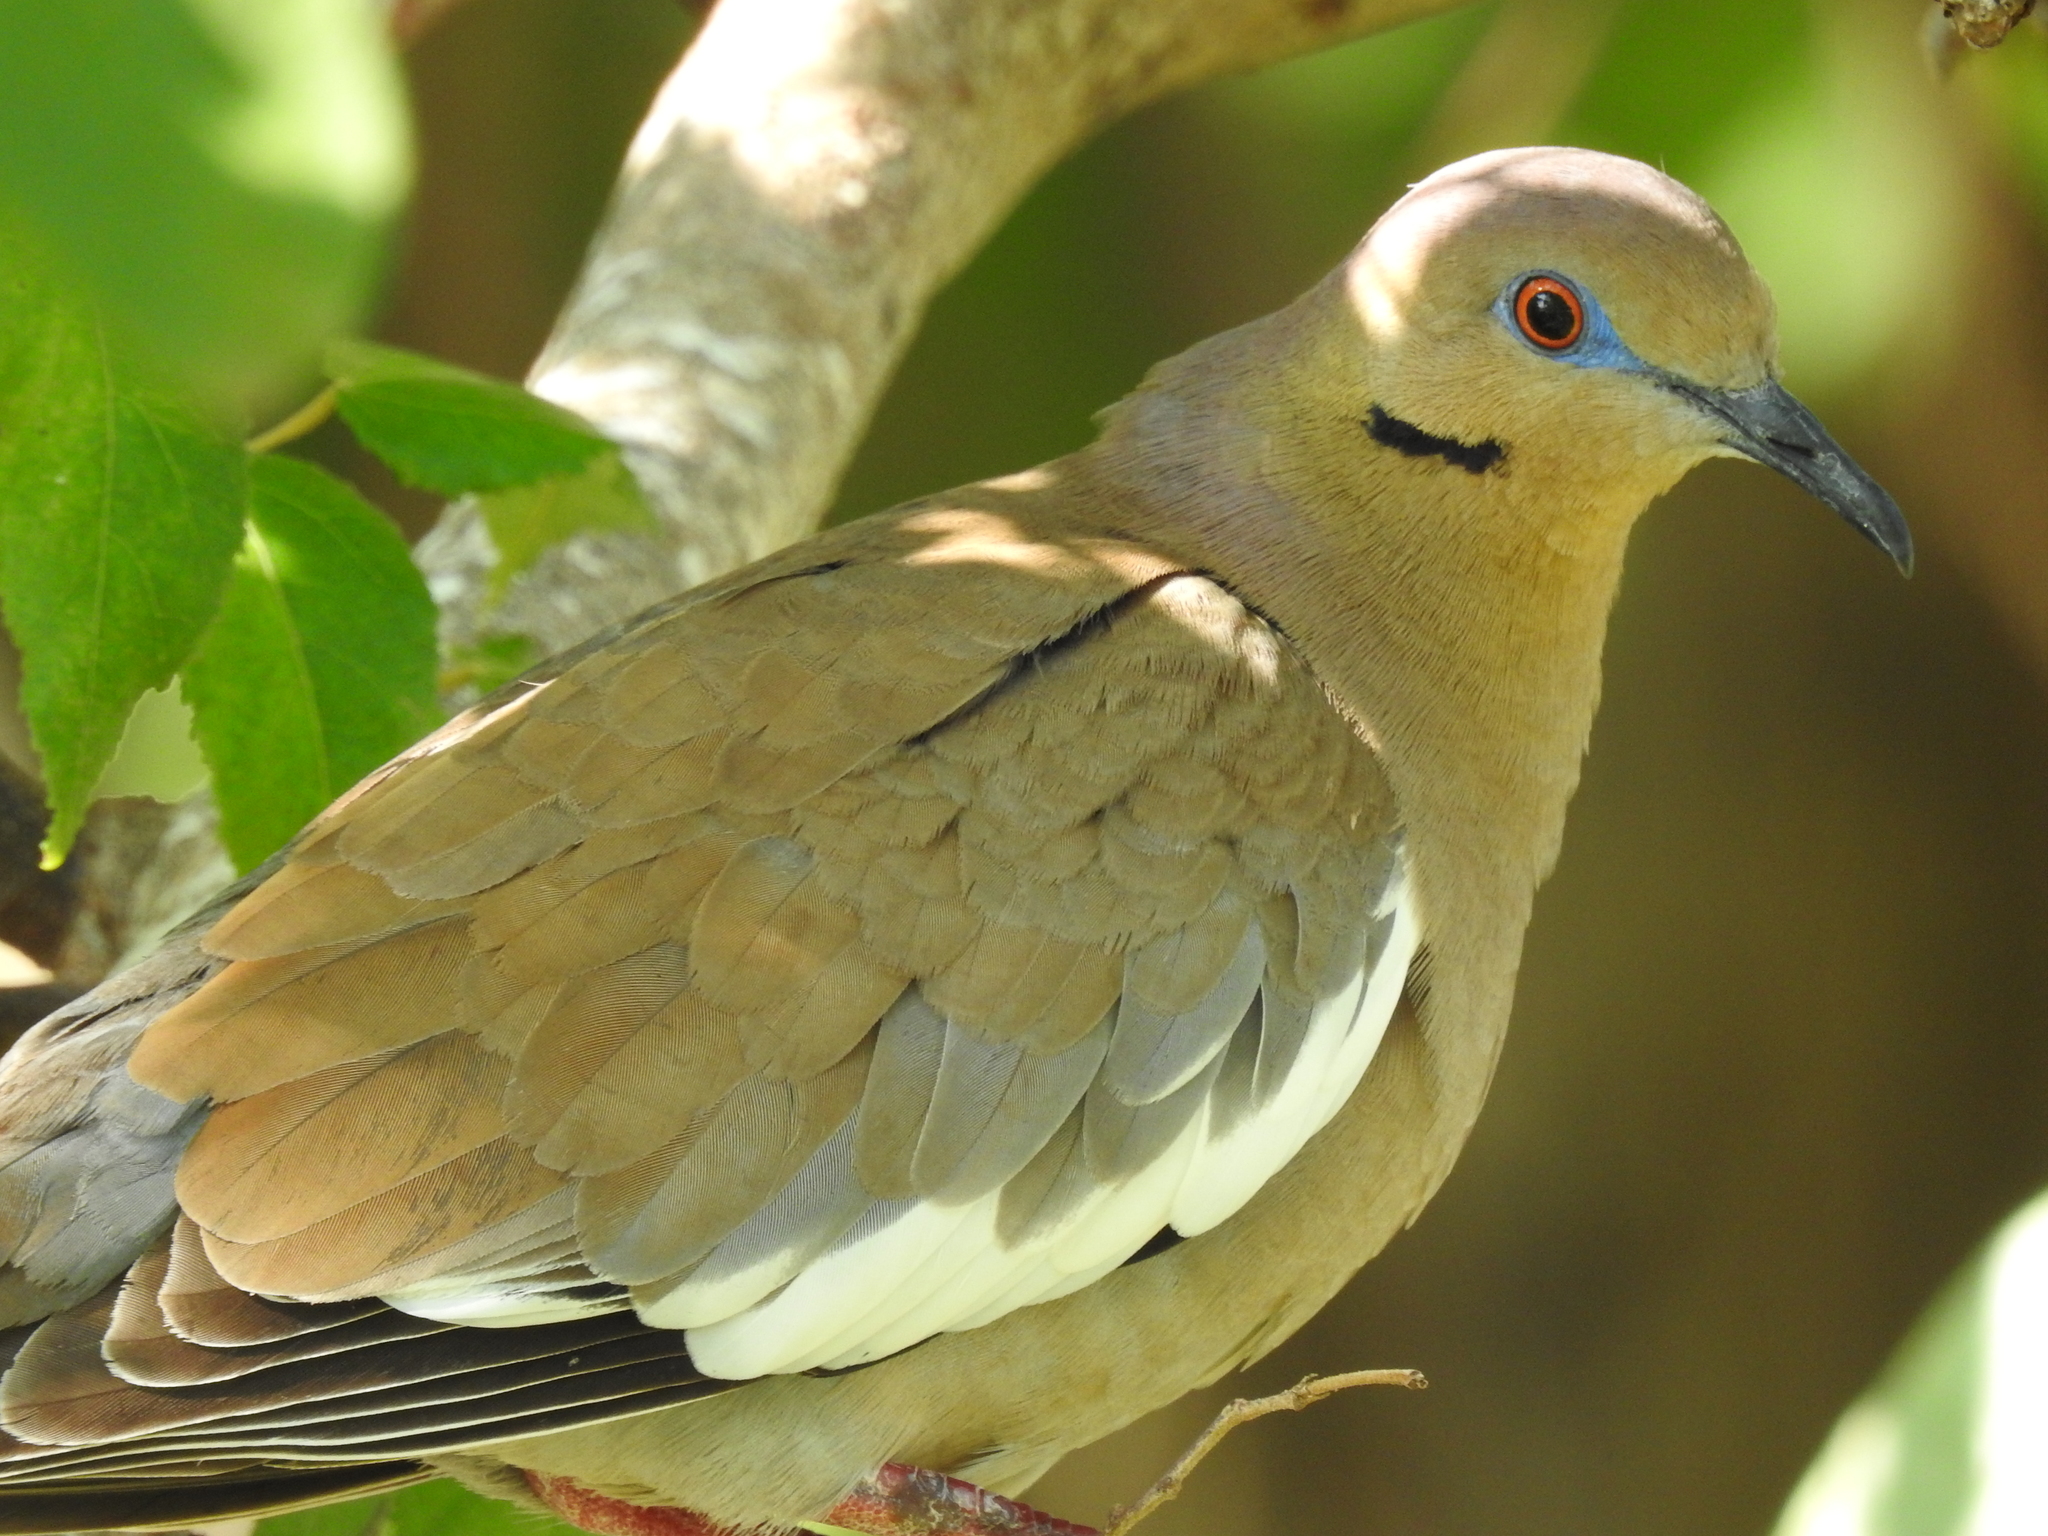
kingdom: Animalia
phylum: Chordata
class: Aves
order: Columbiformes
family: Columbidae
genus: Zenaida
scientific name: Zenaida asiatica
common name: White-winged dove
